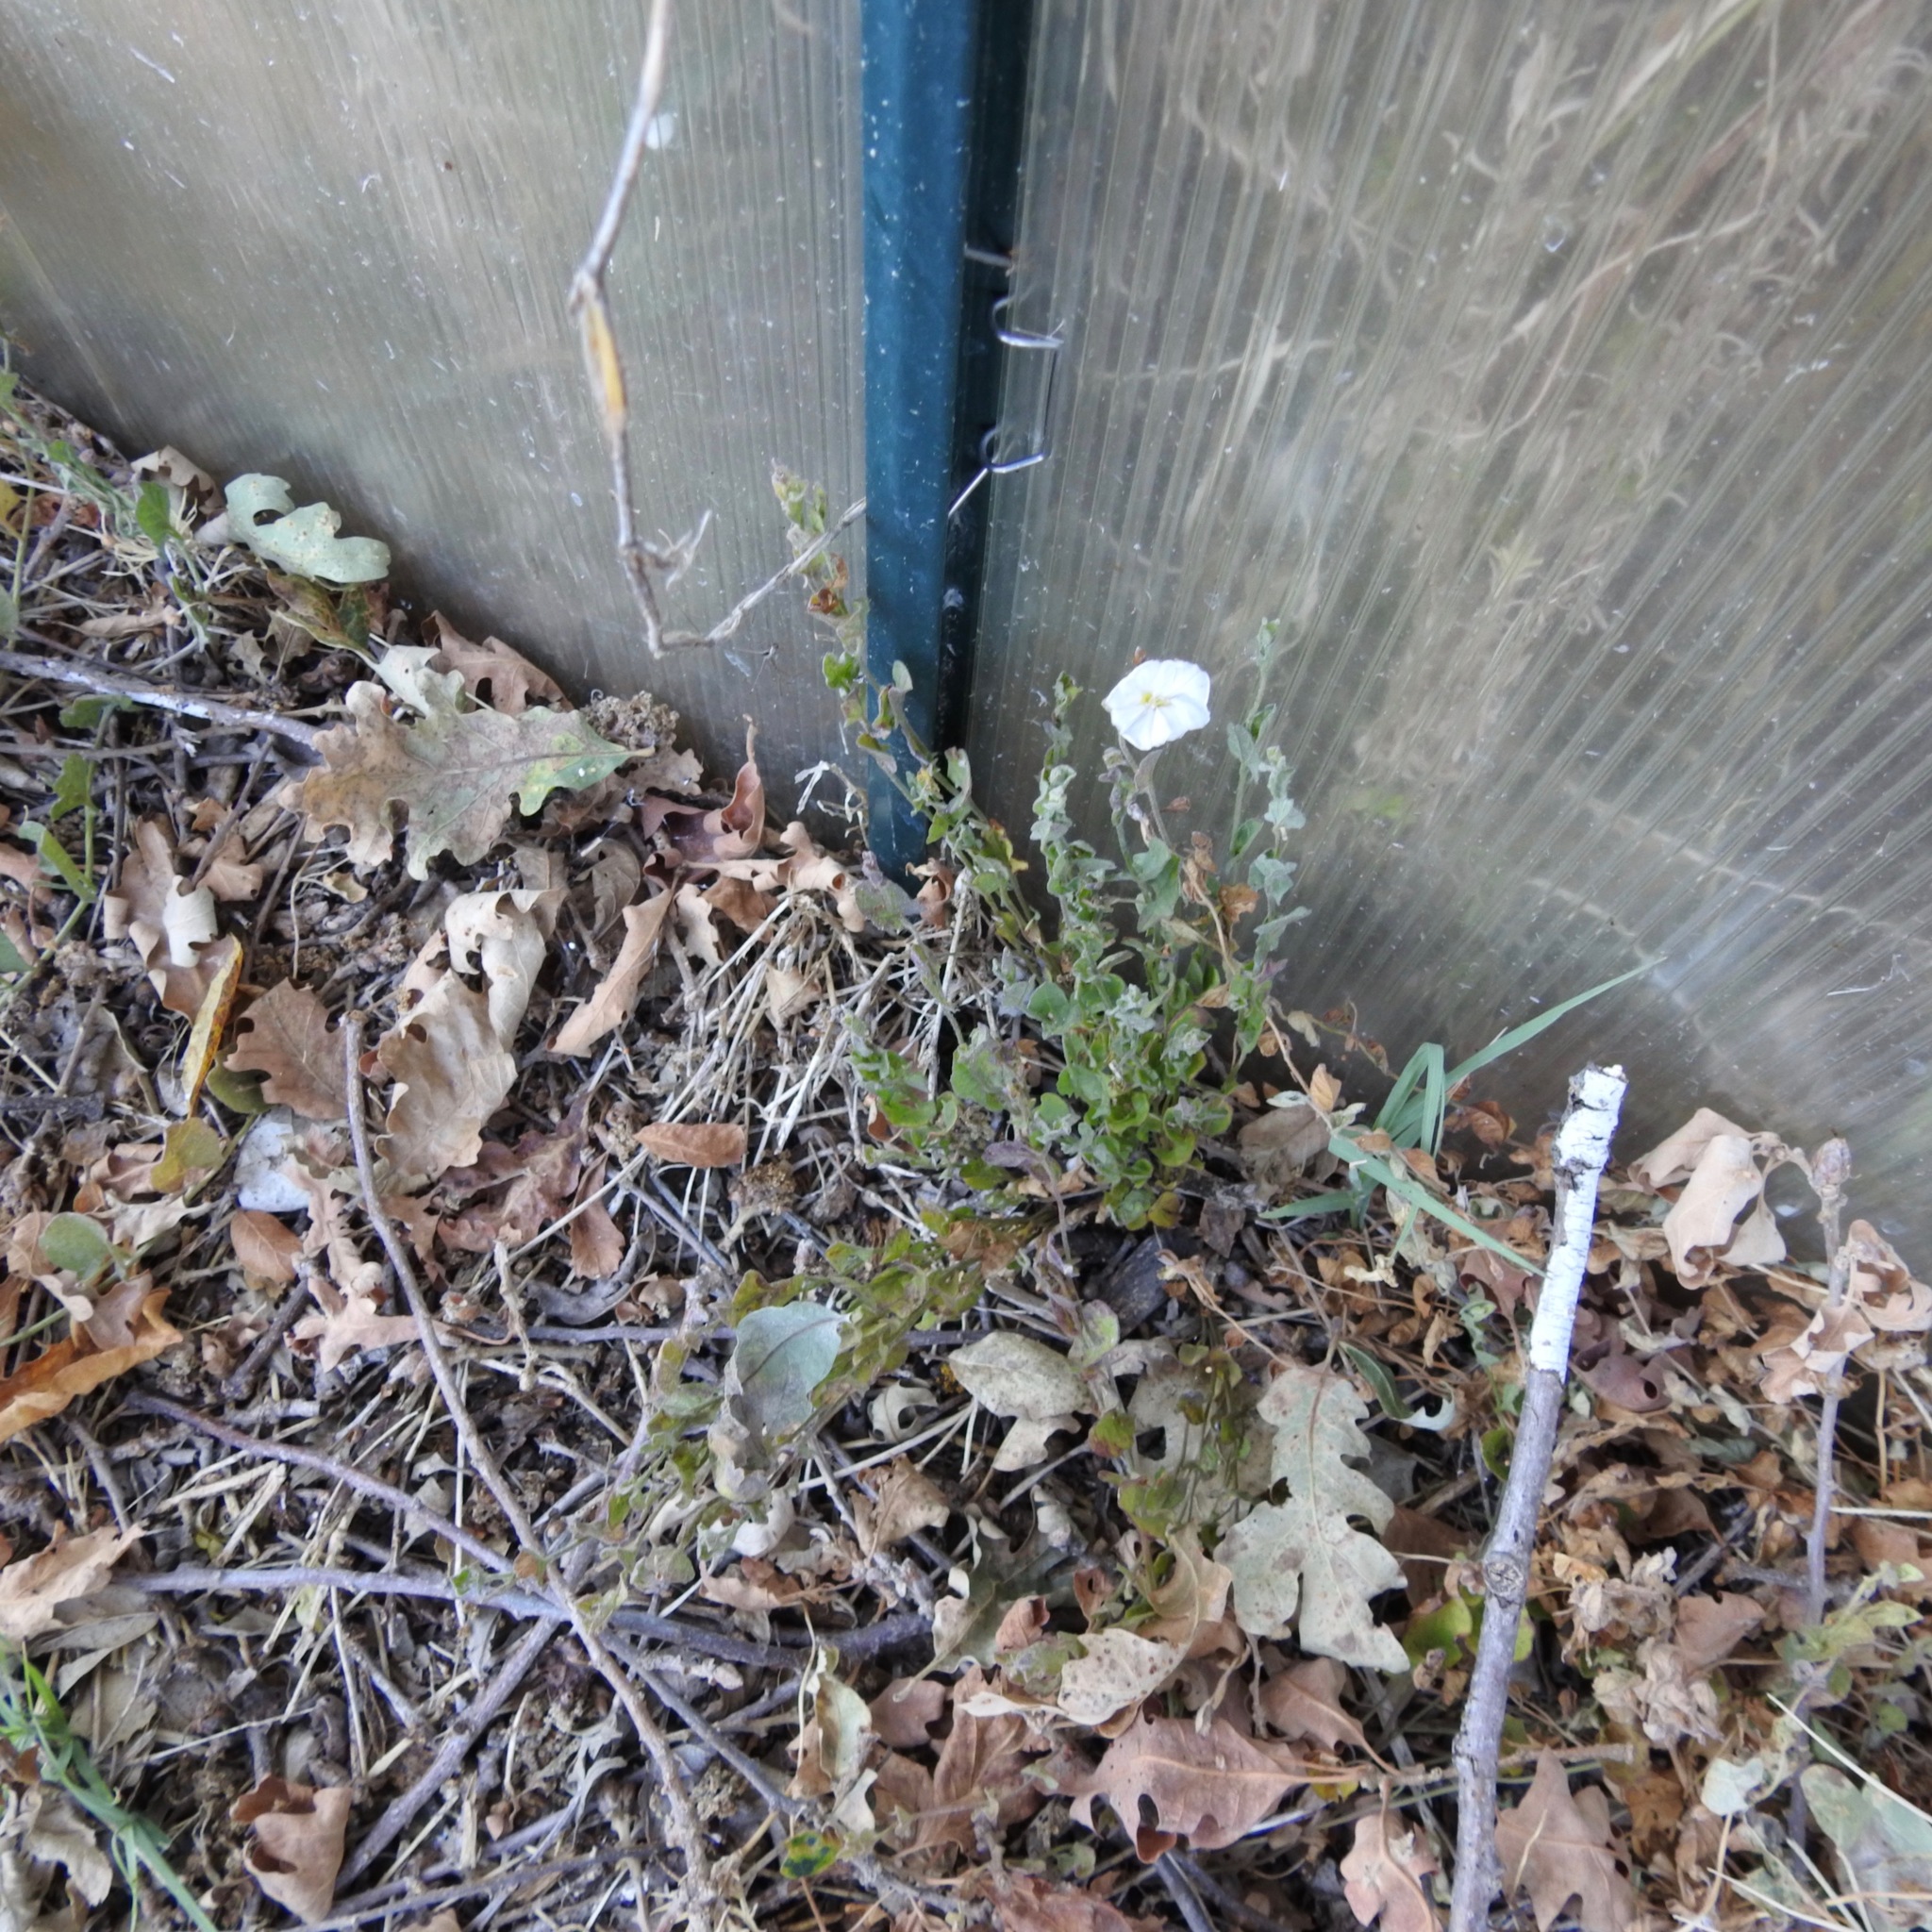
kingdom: Plantae
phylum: Tracheophyta
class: Magnoliopsida
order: Solanales
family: Convolvulaceae
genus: Convolvulus
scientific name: Convolvulus arvensis
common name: Field bindweed
